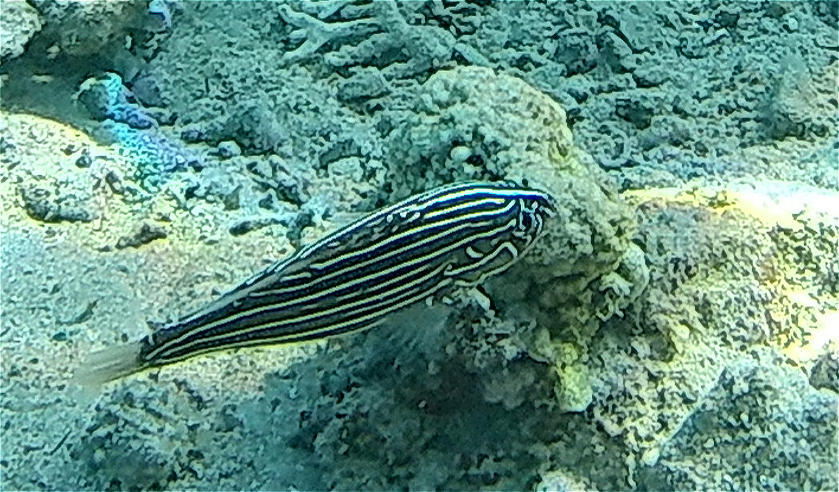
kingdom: Animalia
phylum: Chordata
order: Perciformes
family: Serranidae
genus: Grammistes
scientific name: Grammistes sexlineatus
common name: Sixline soapfish
